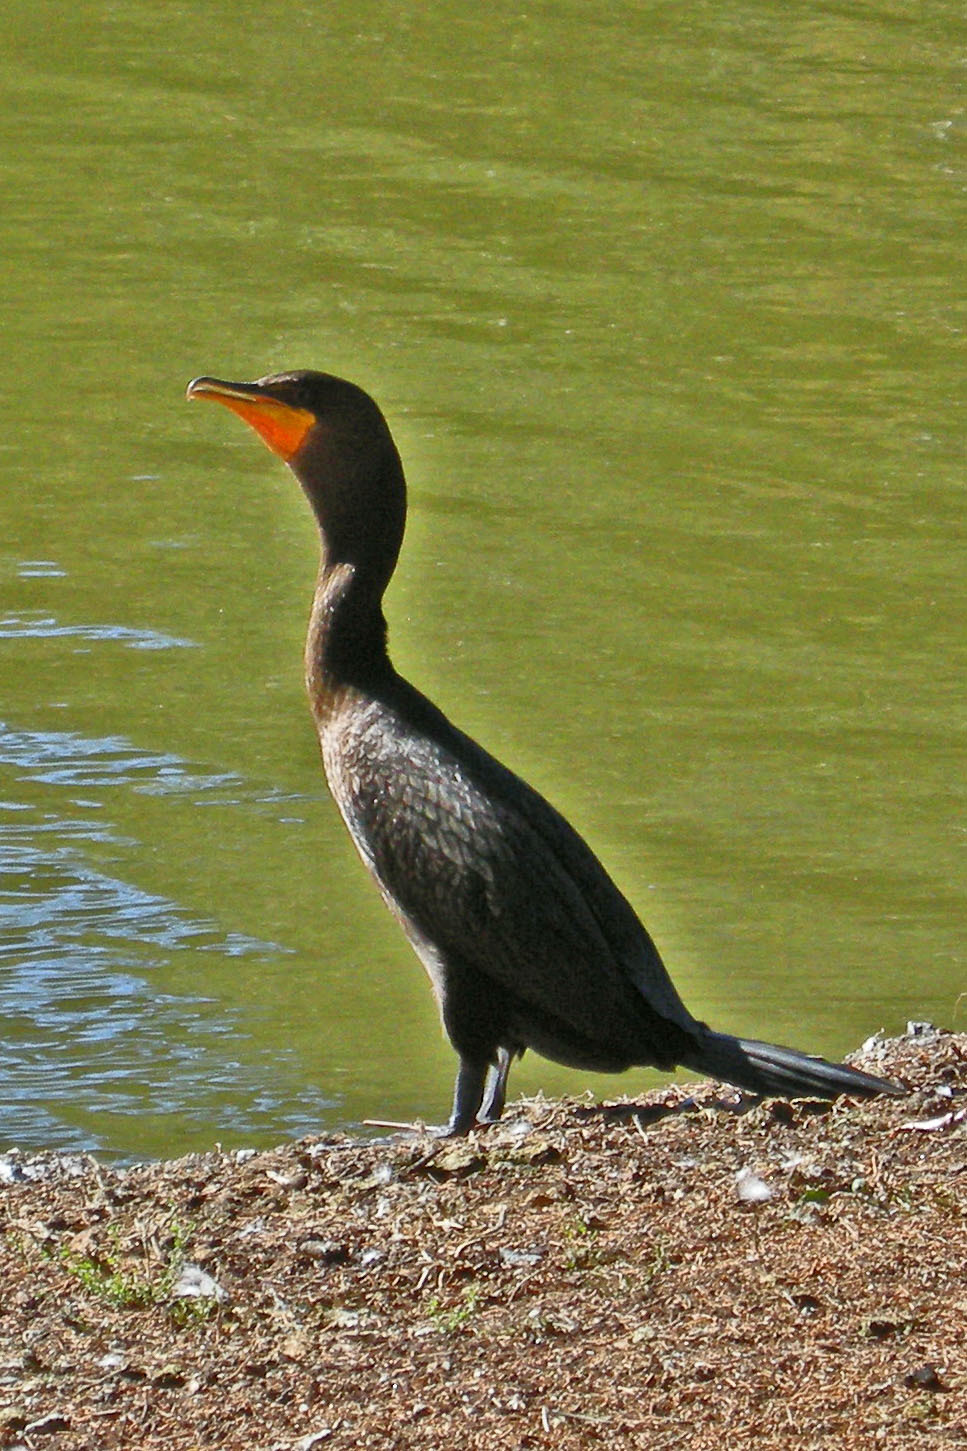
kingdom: Animalia
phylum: Chordata
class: Aves
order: Suliformes
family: Phalacrocoracidae
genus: Phalacrocorax
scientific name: Phalacrocorax auritus
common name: Double-crested cormorant
